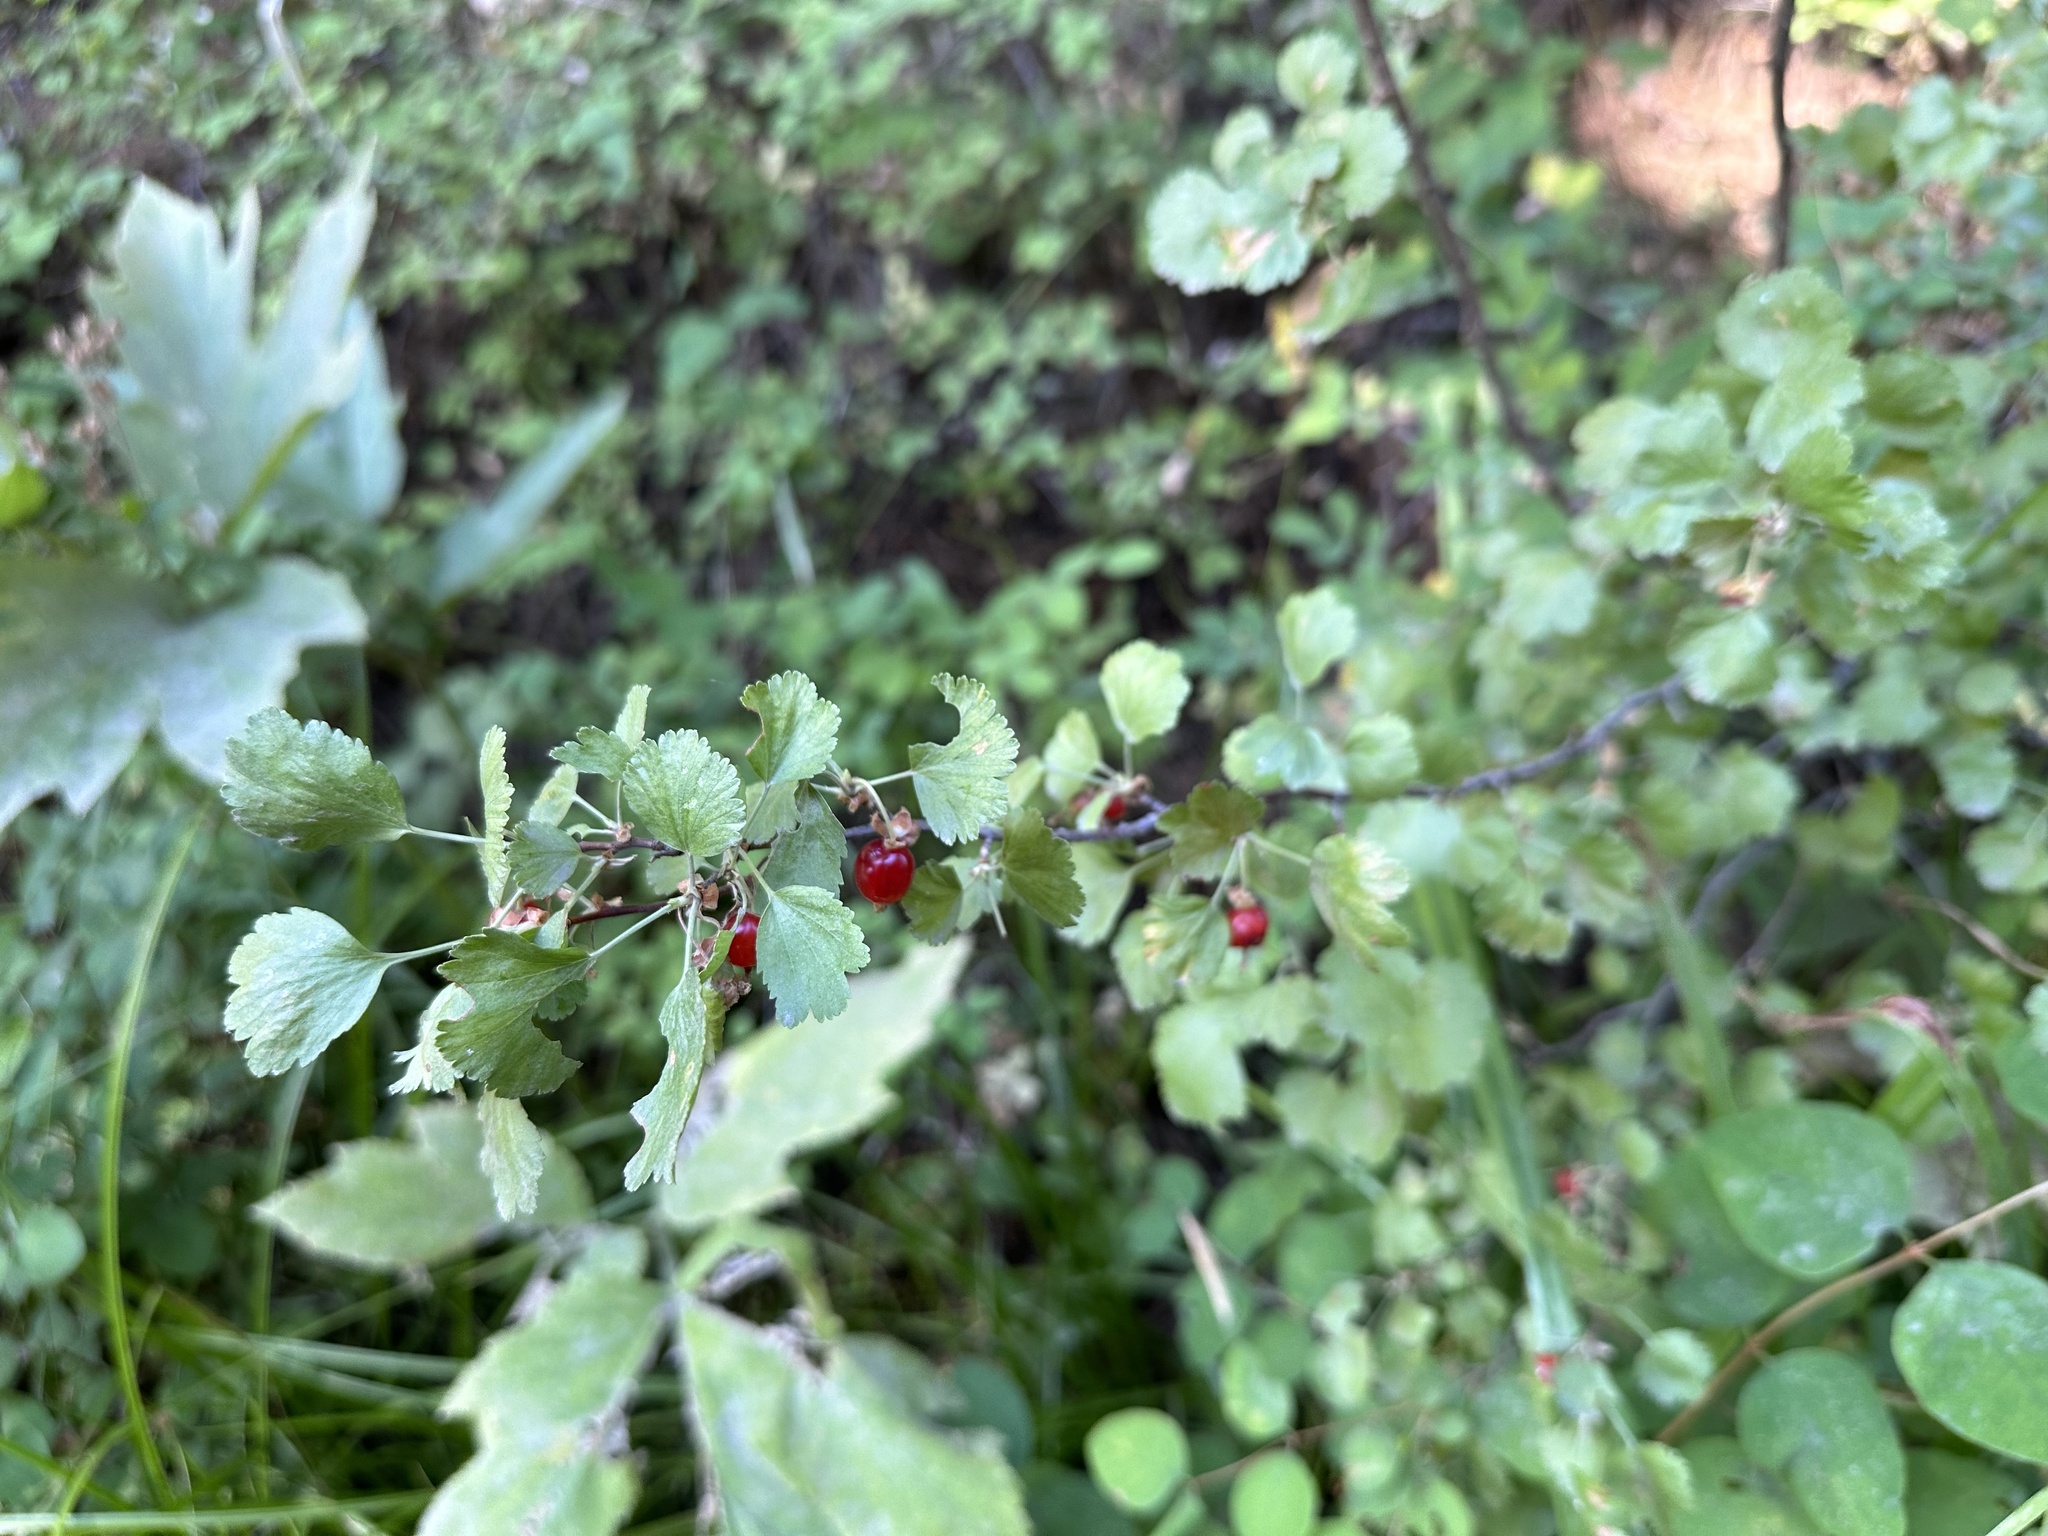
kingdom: Plantae
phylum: Tracheophyta
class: Magnoliopsida
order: Saxifragales
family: Grossulariaceae
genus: Ribes
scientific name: Ribes cereum
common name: Wax currant
